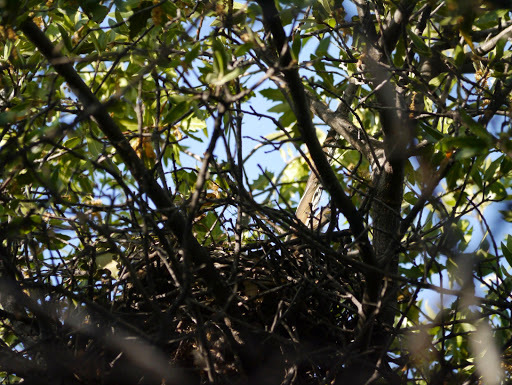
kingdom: Animalia
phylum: Chordata
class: Aves
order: Cuculiformes
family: Cuculidae
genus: Geococcyx
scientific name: Geococcyx californianus
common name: Greater roadrunner
